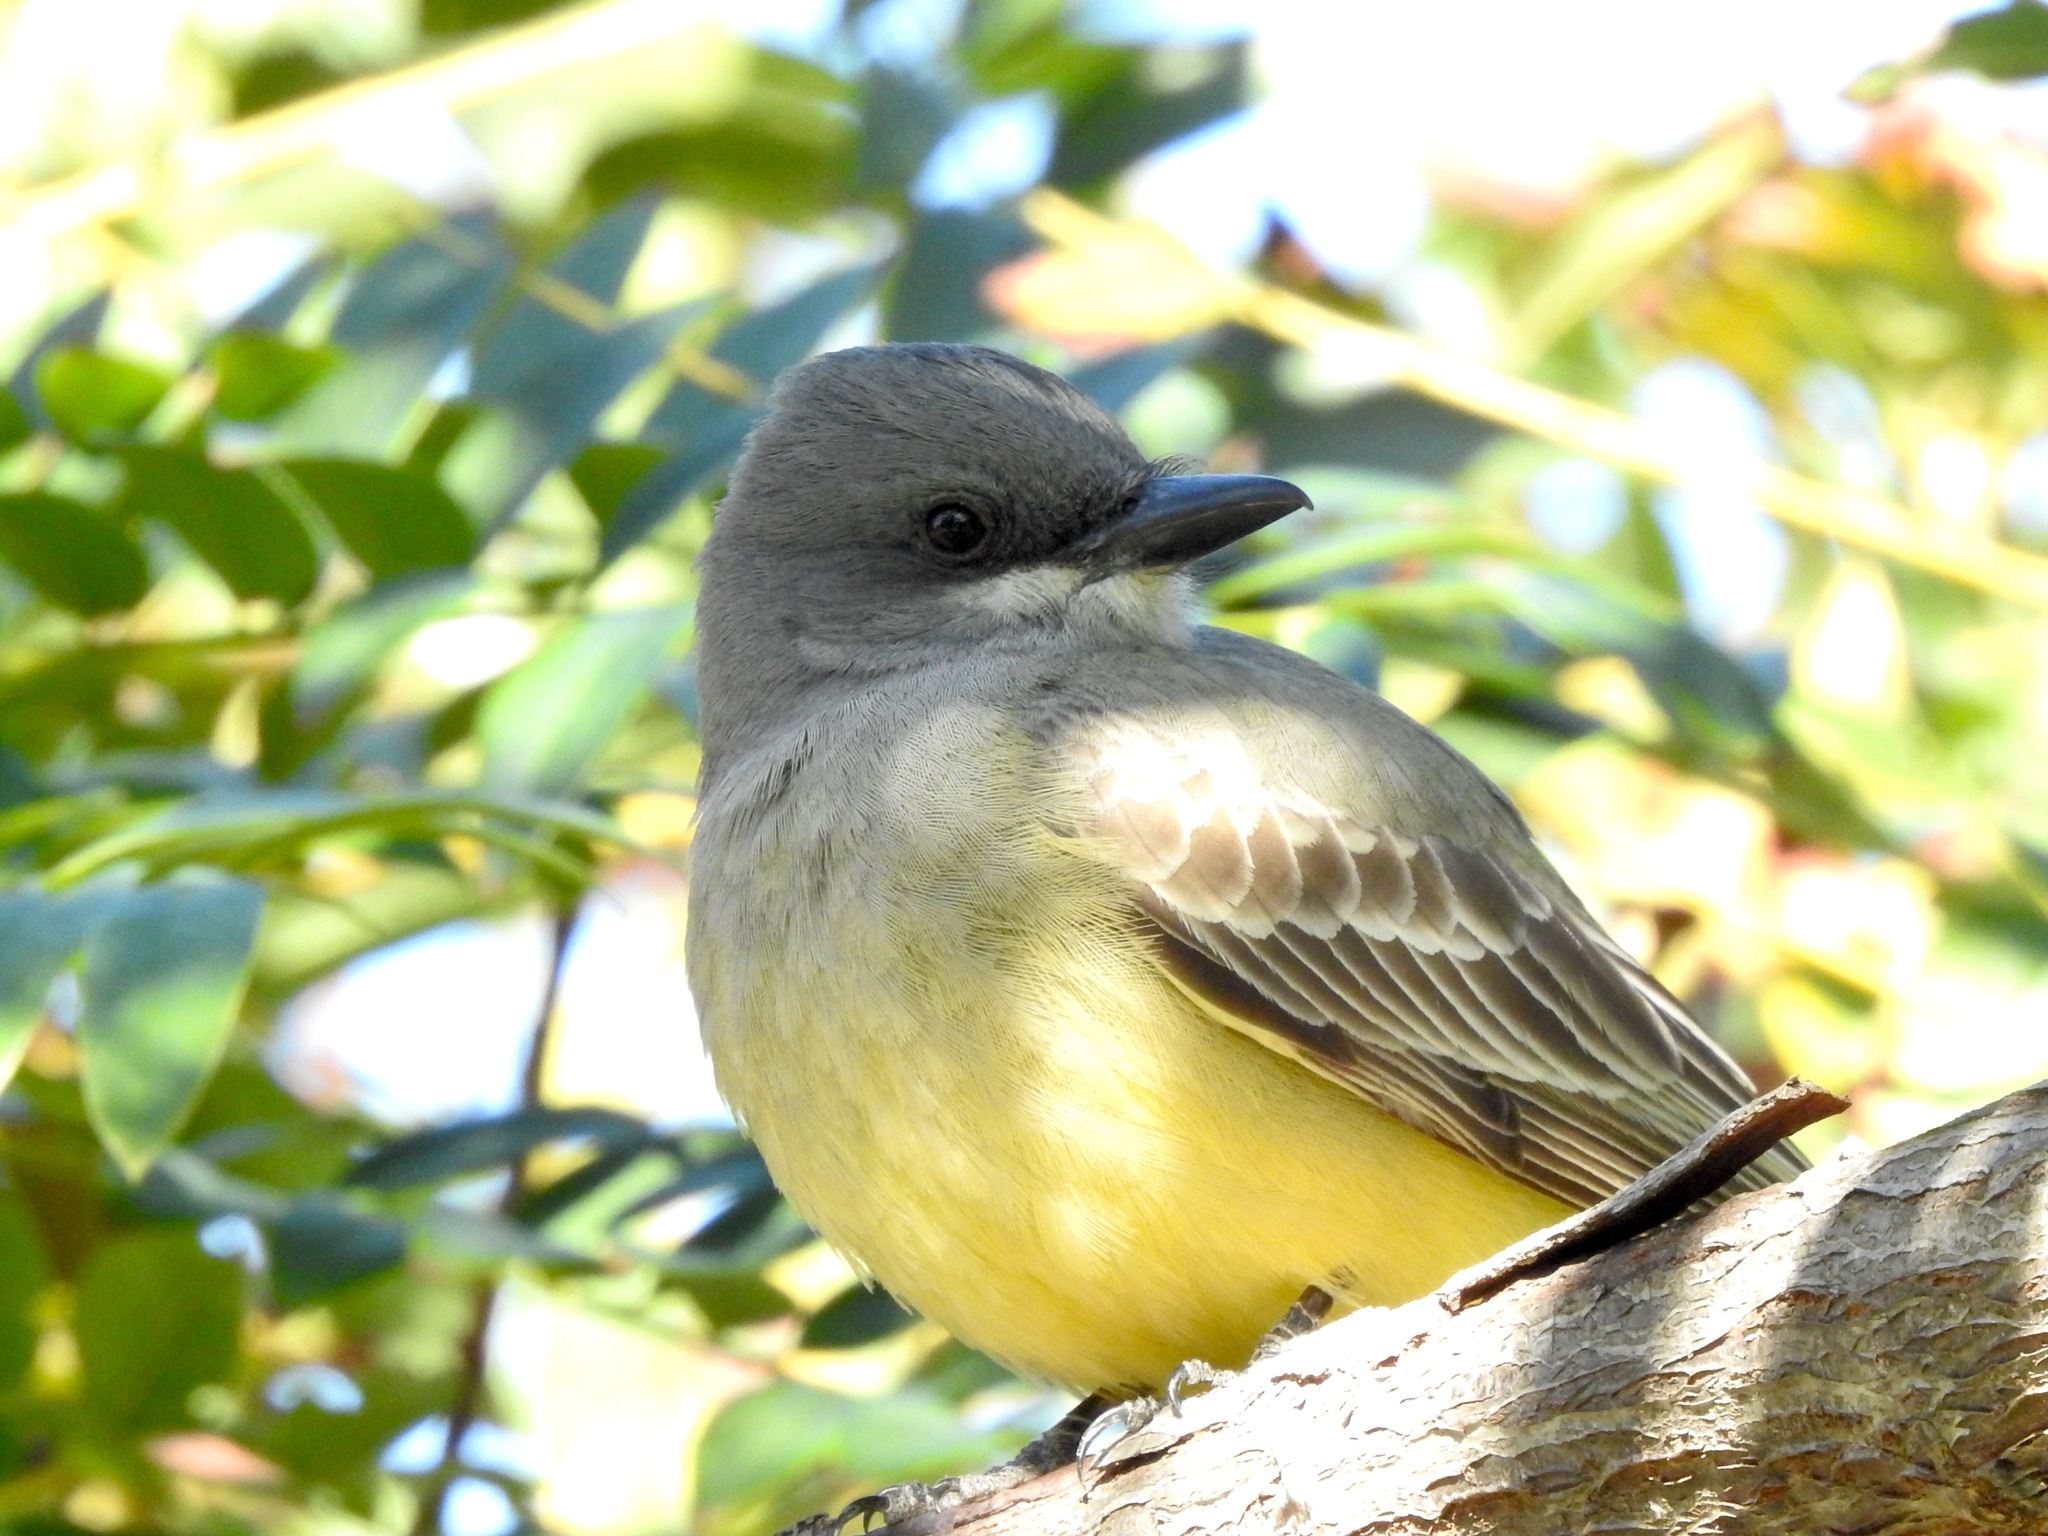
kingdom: Animalia
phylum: Chordata
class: Aves
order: Passeriformes
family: Tyrannidae
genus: Tyrannus
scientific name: Tyrannus vociferans
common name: Cassin's kingbird
